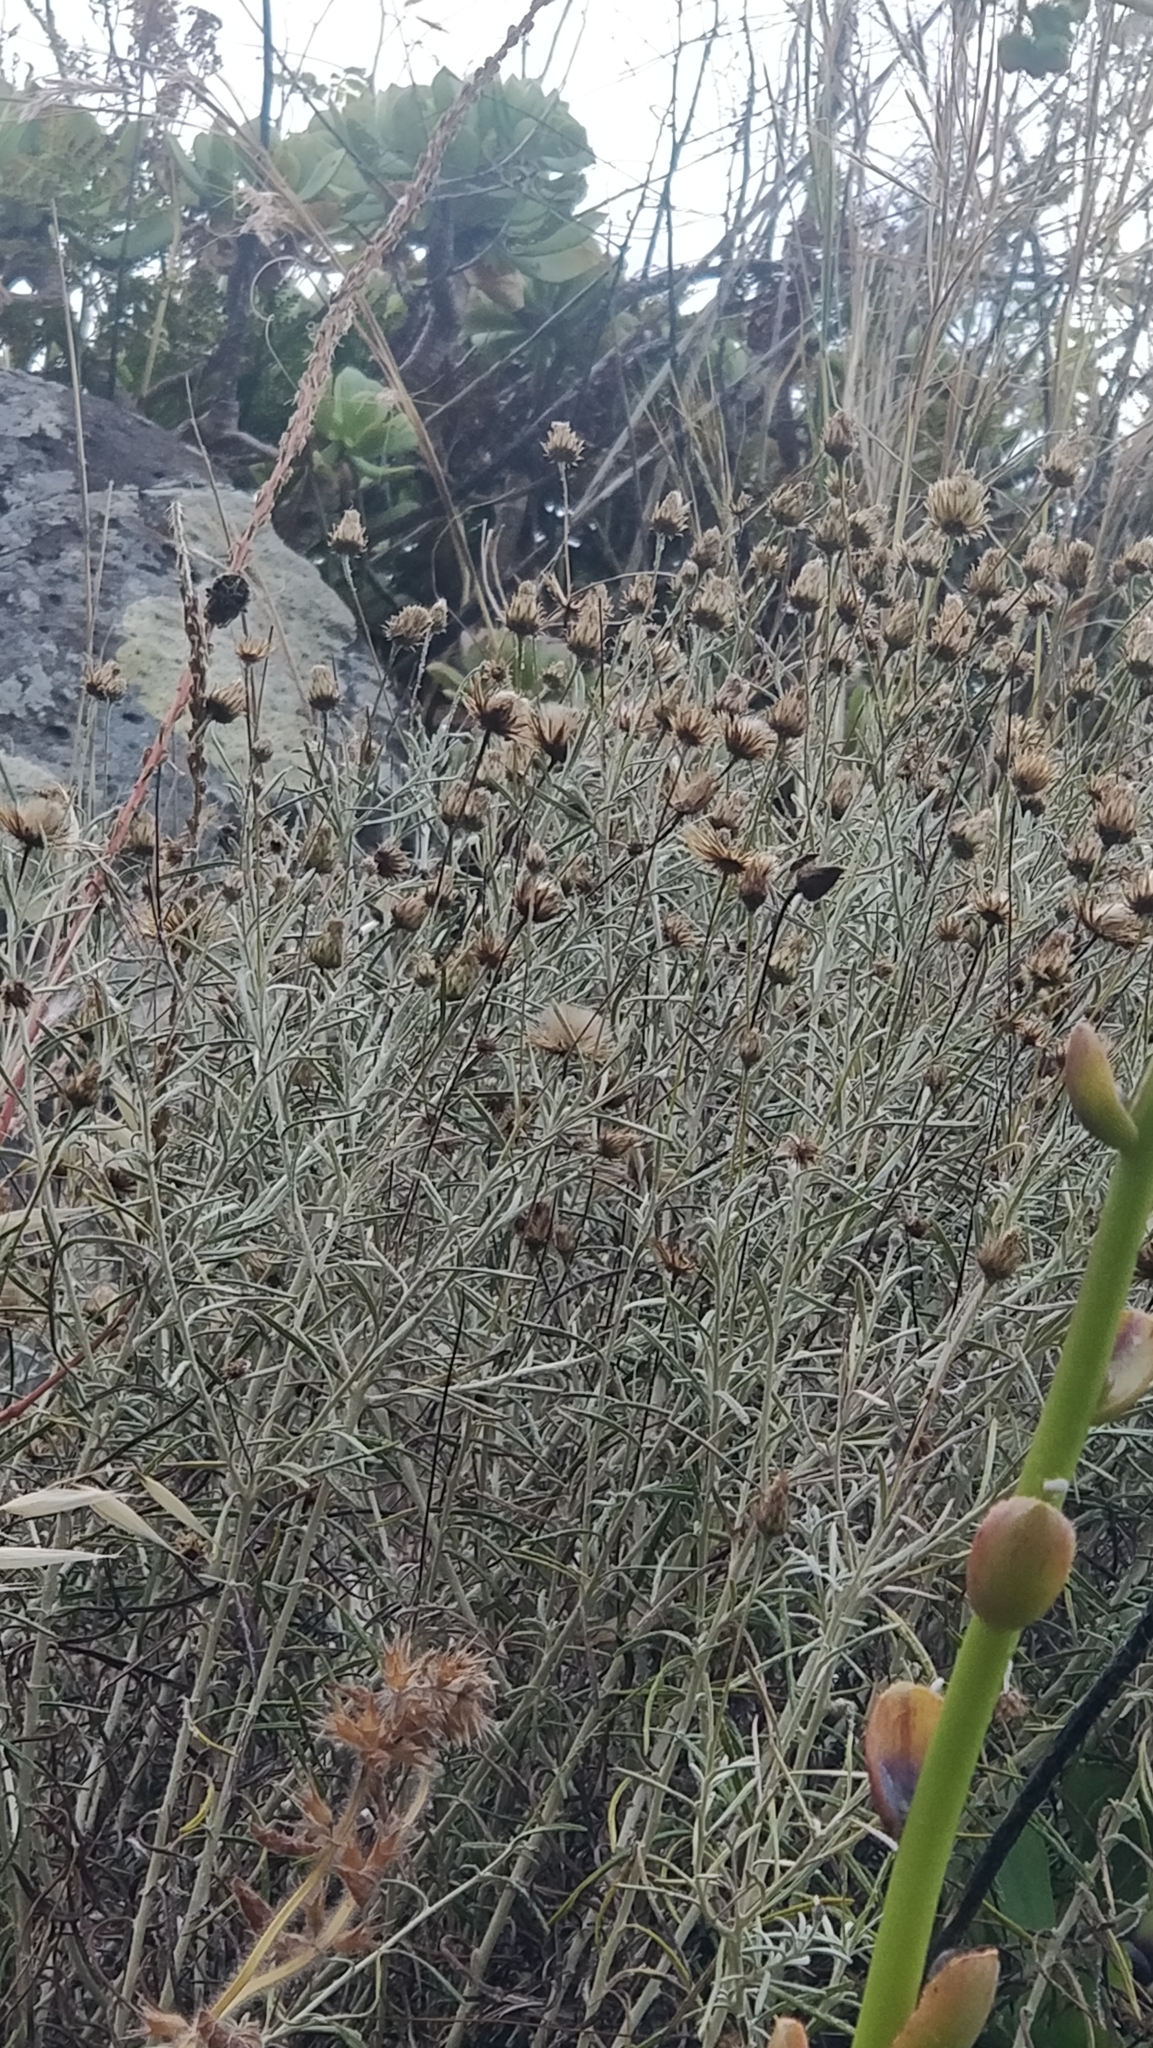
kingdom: Plantae
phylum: Tracheophyta
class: Magnoliopsida
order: Asterales
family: Asteraceae
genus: Phagnalon
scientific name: Phagnalon saxatile
